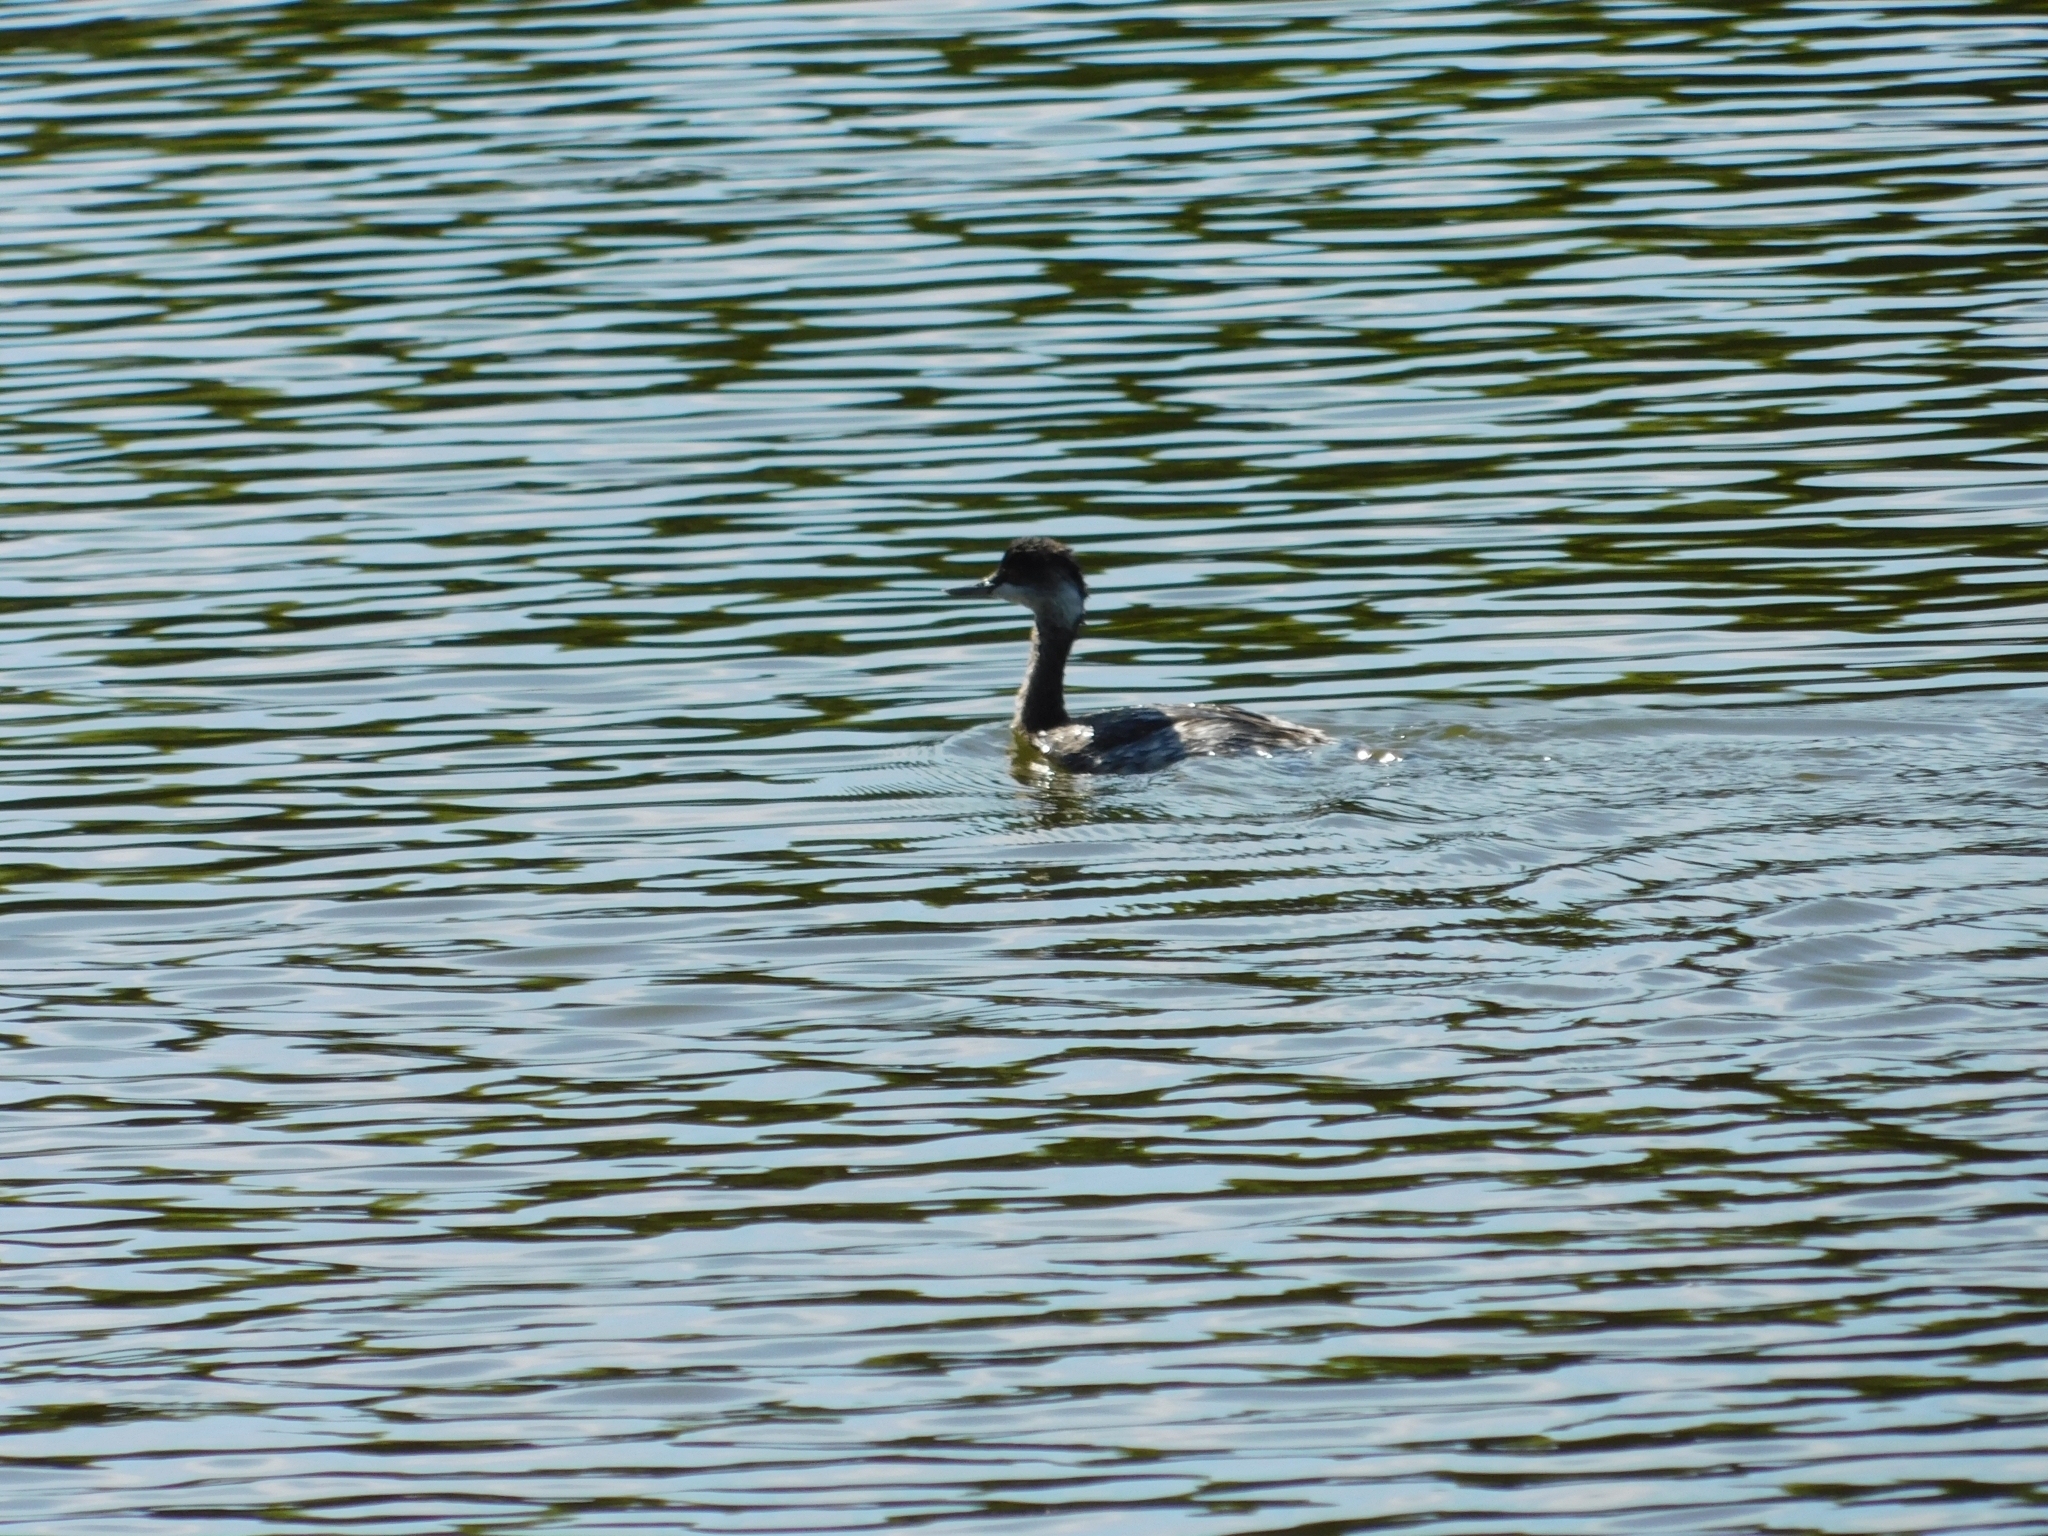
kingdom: Animalia
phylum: Chordata
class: Aves
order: Podicipediformes
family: Podicipedidae
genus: Podiceps
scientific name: Podiceps nigricollis
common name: Black-necked grebe
